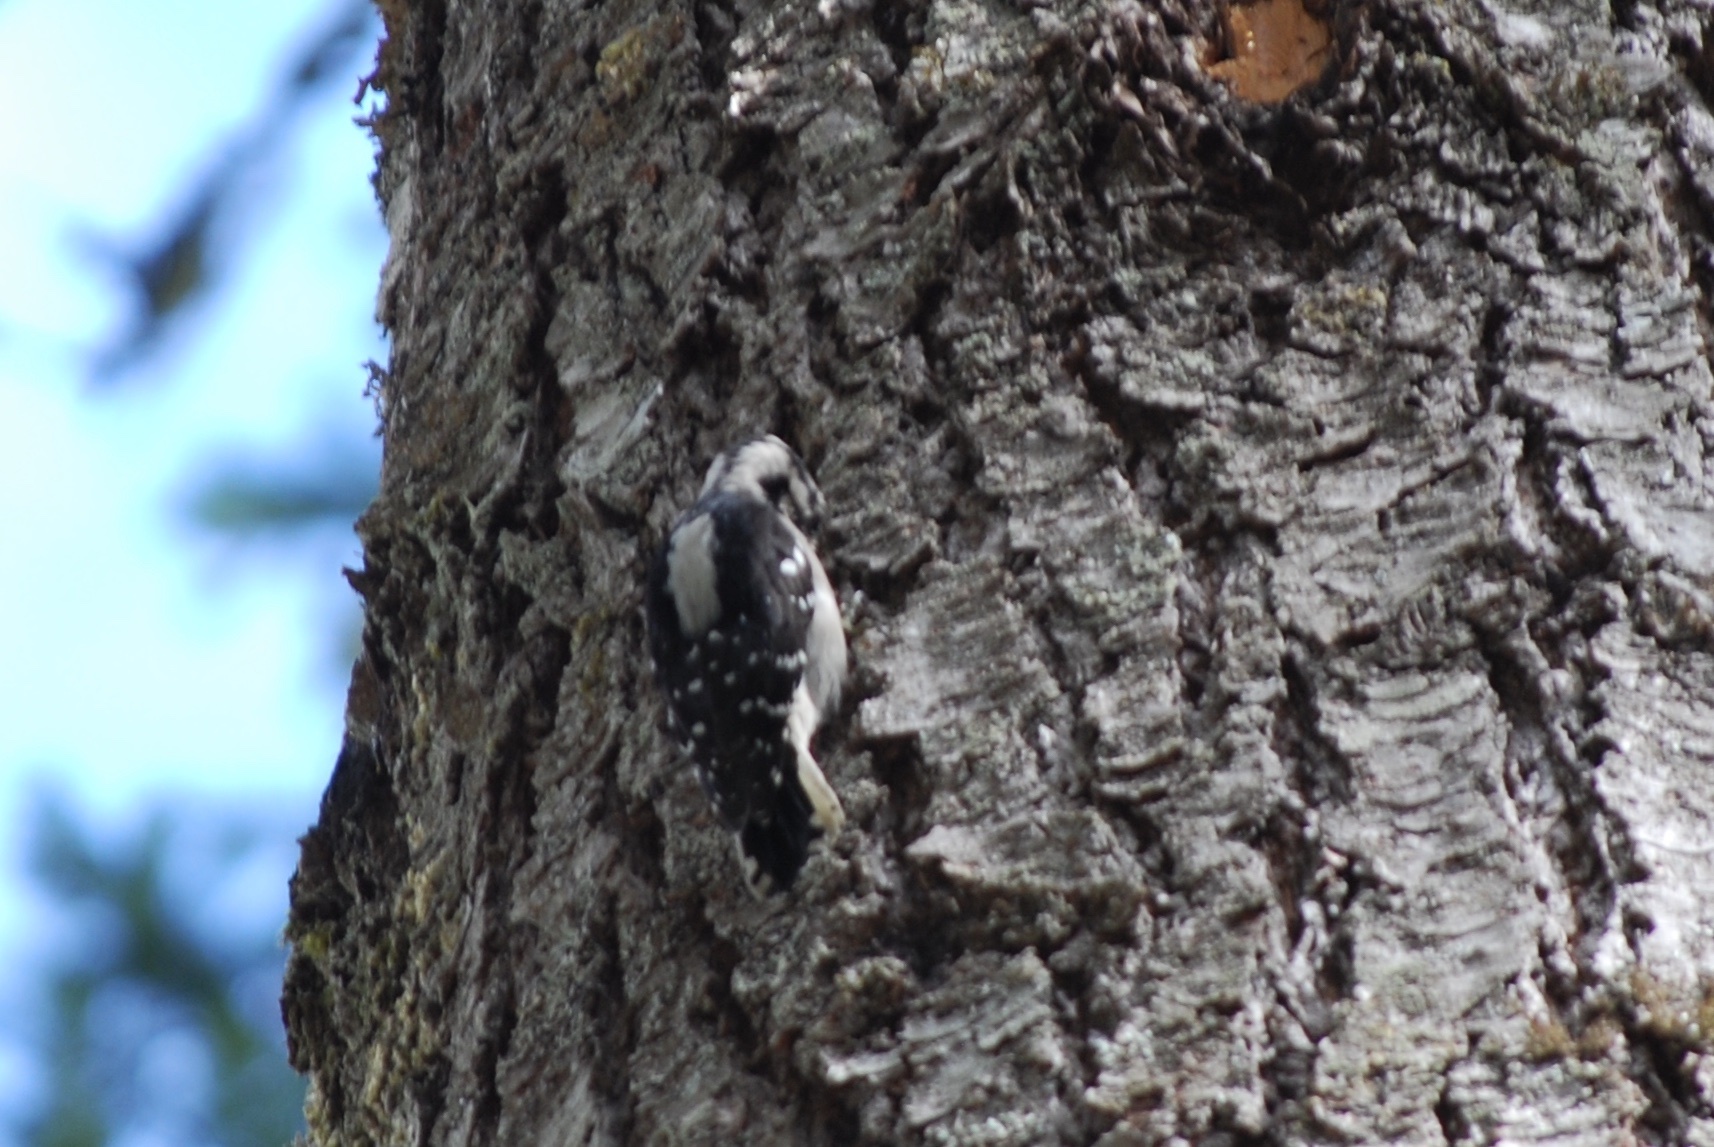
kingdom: Animalia
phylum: Chordata
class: Aves
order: Piciformes
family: Picidae
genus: Dryobates
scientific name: Dryobates pubescens
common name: Downy woodpecker
